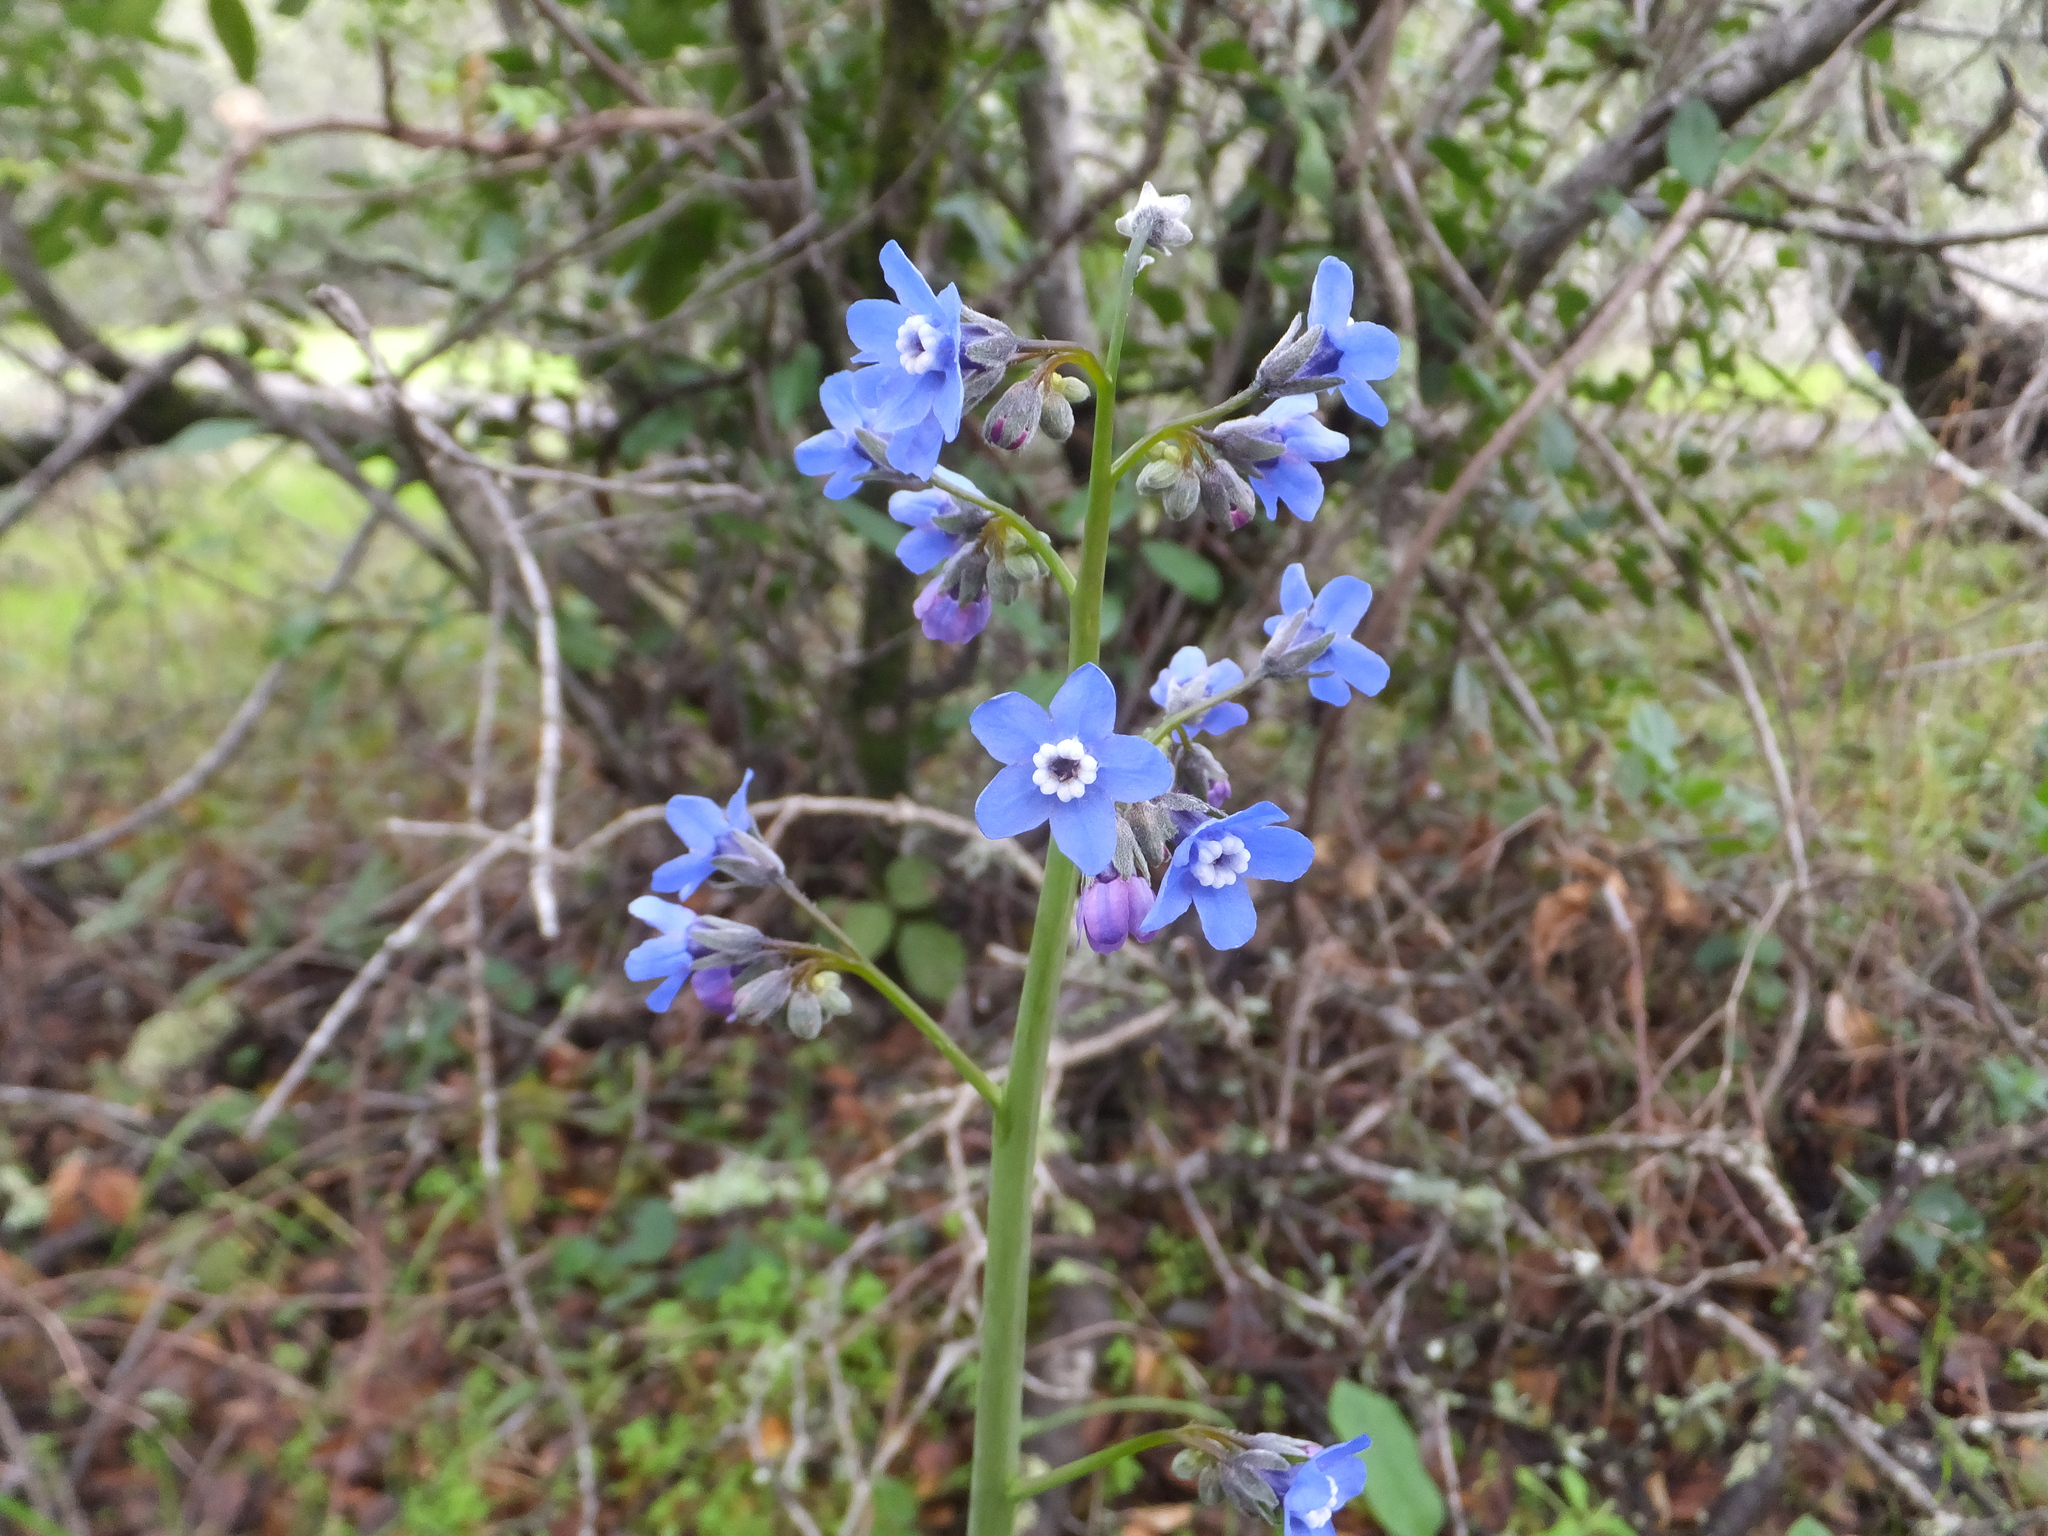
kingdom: Plantae
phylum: Tracheophyta
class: Magnoliopsida
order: Boraginales
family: Boraginaceae
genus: Adelinia
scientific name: Adelinia grande
